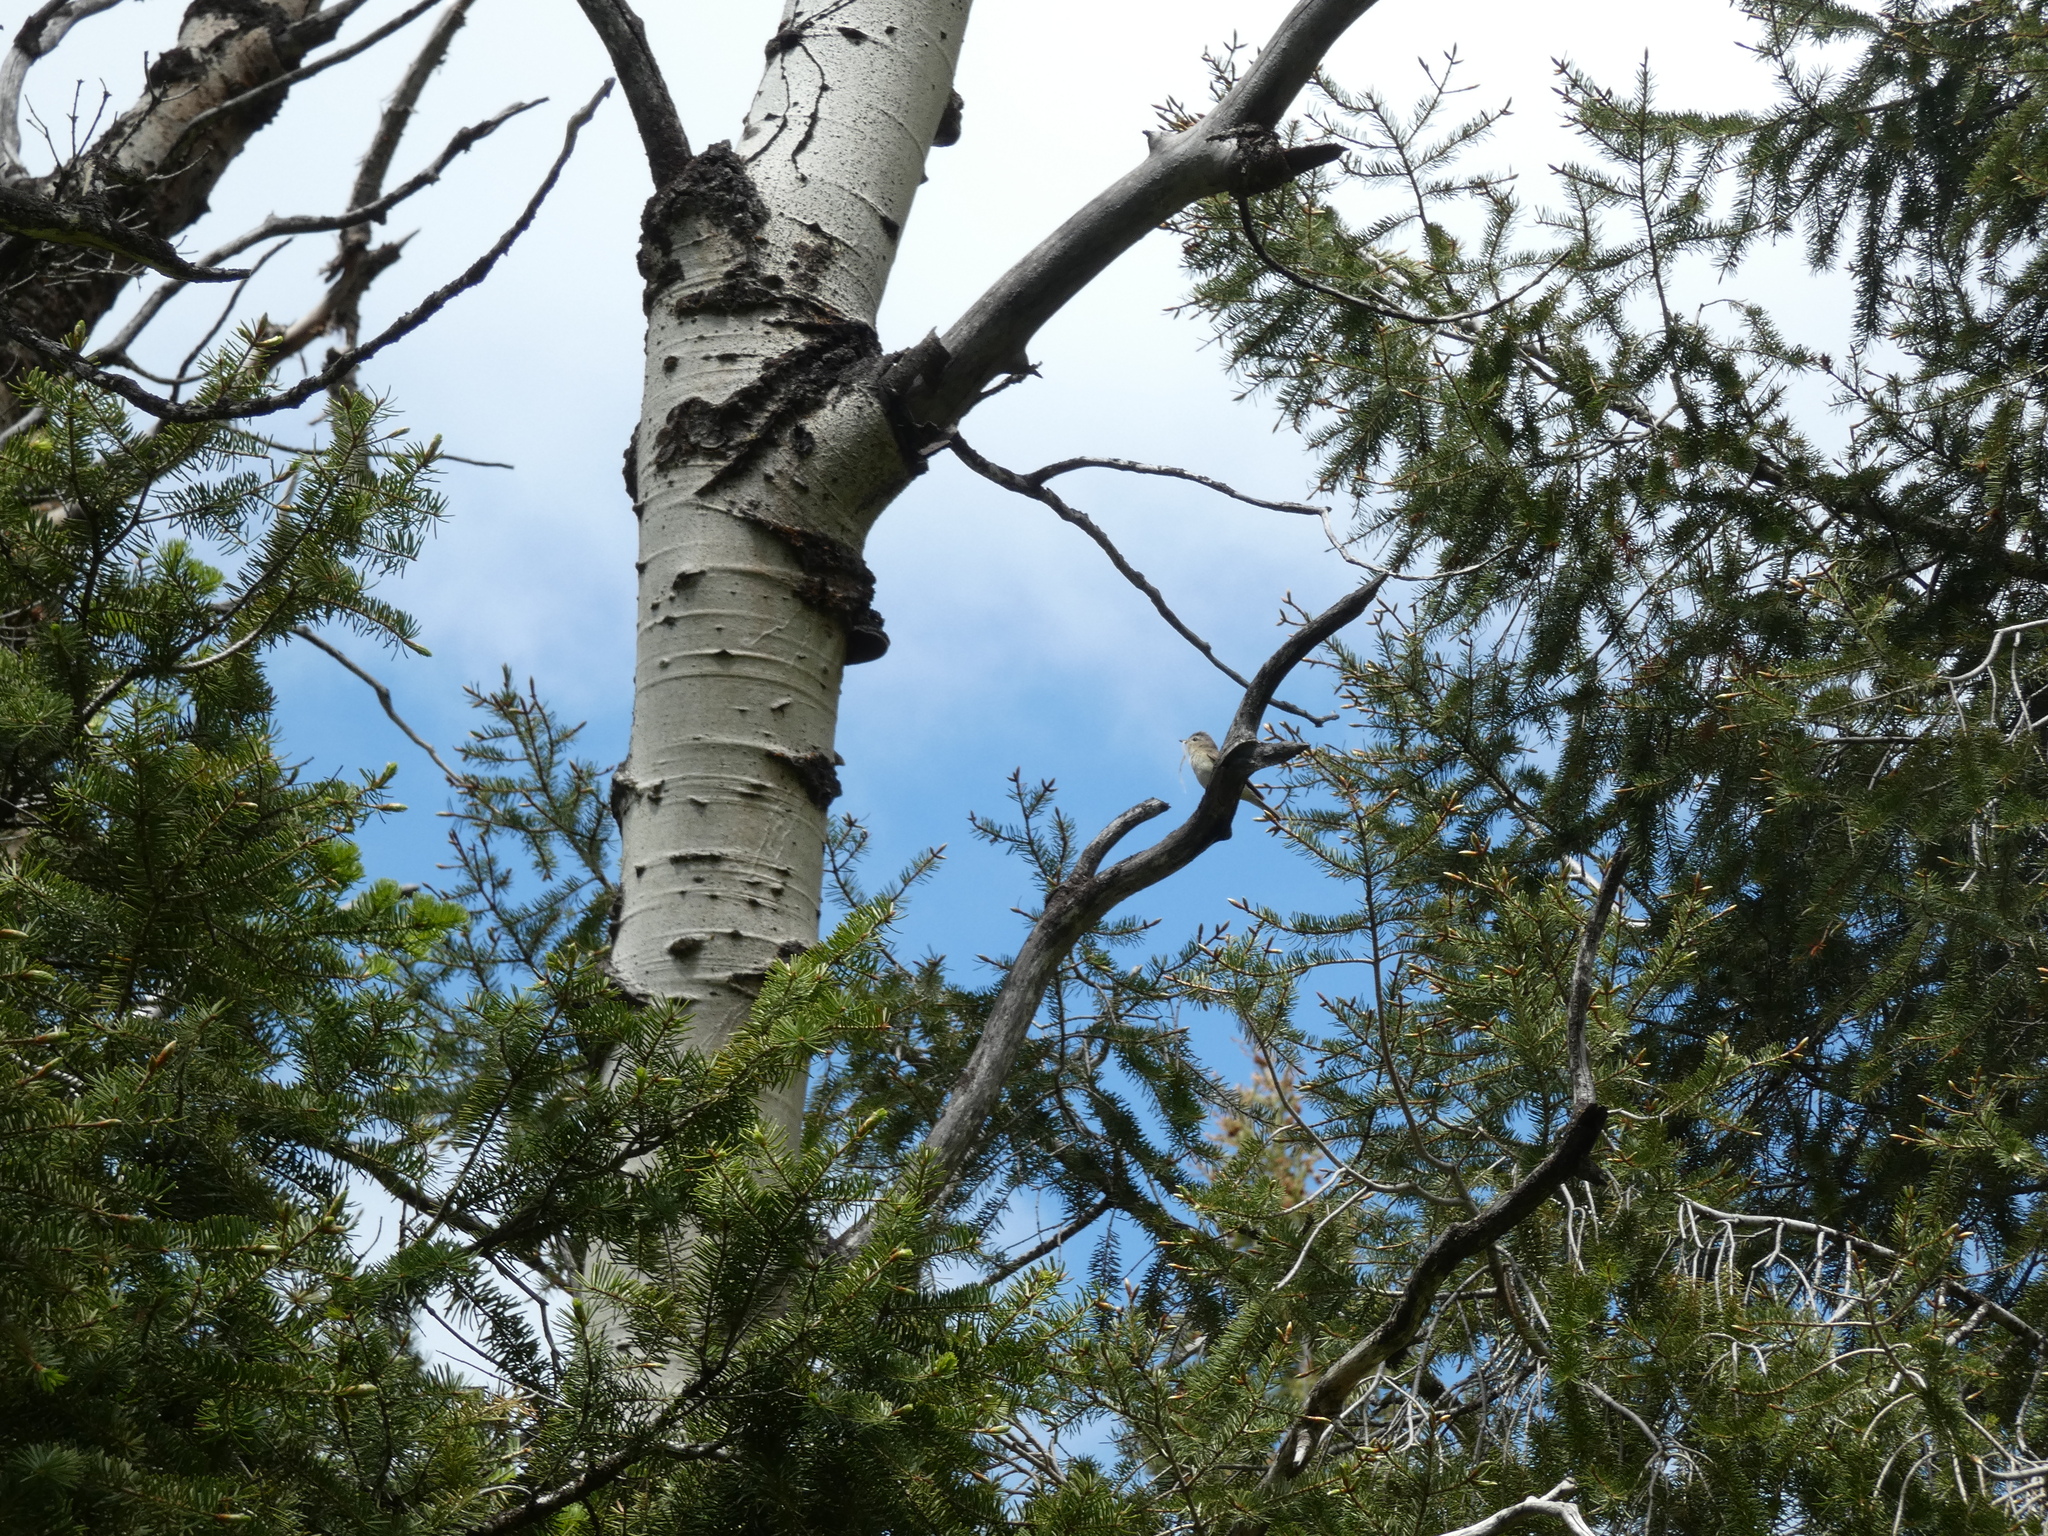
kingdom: Animalia
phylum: Chordata
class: Aves
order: Passeriformes
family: Vireonidae
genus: Vireo
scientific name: Vireo gilvus
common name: Warbling vireo
